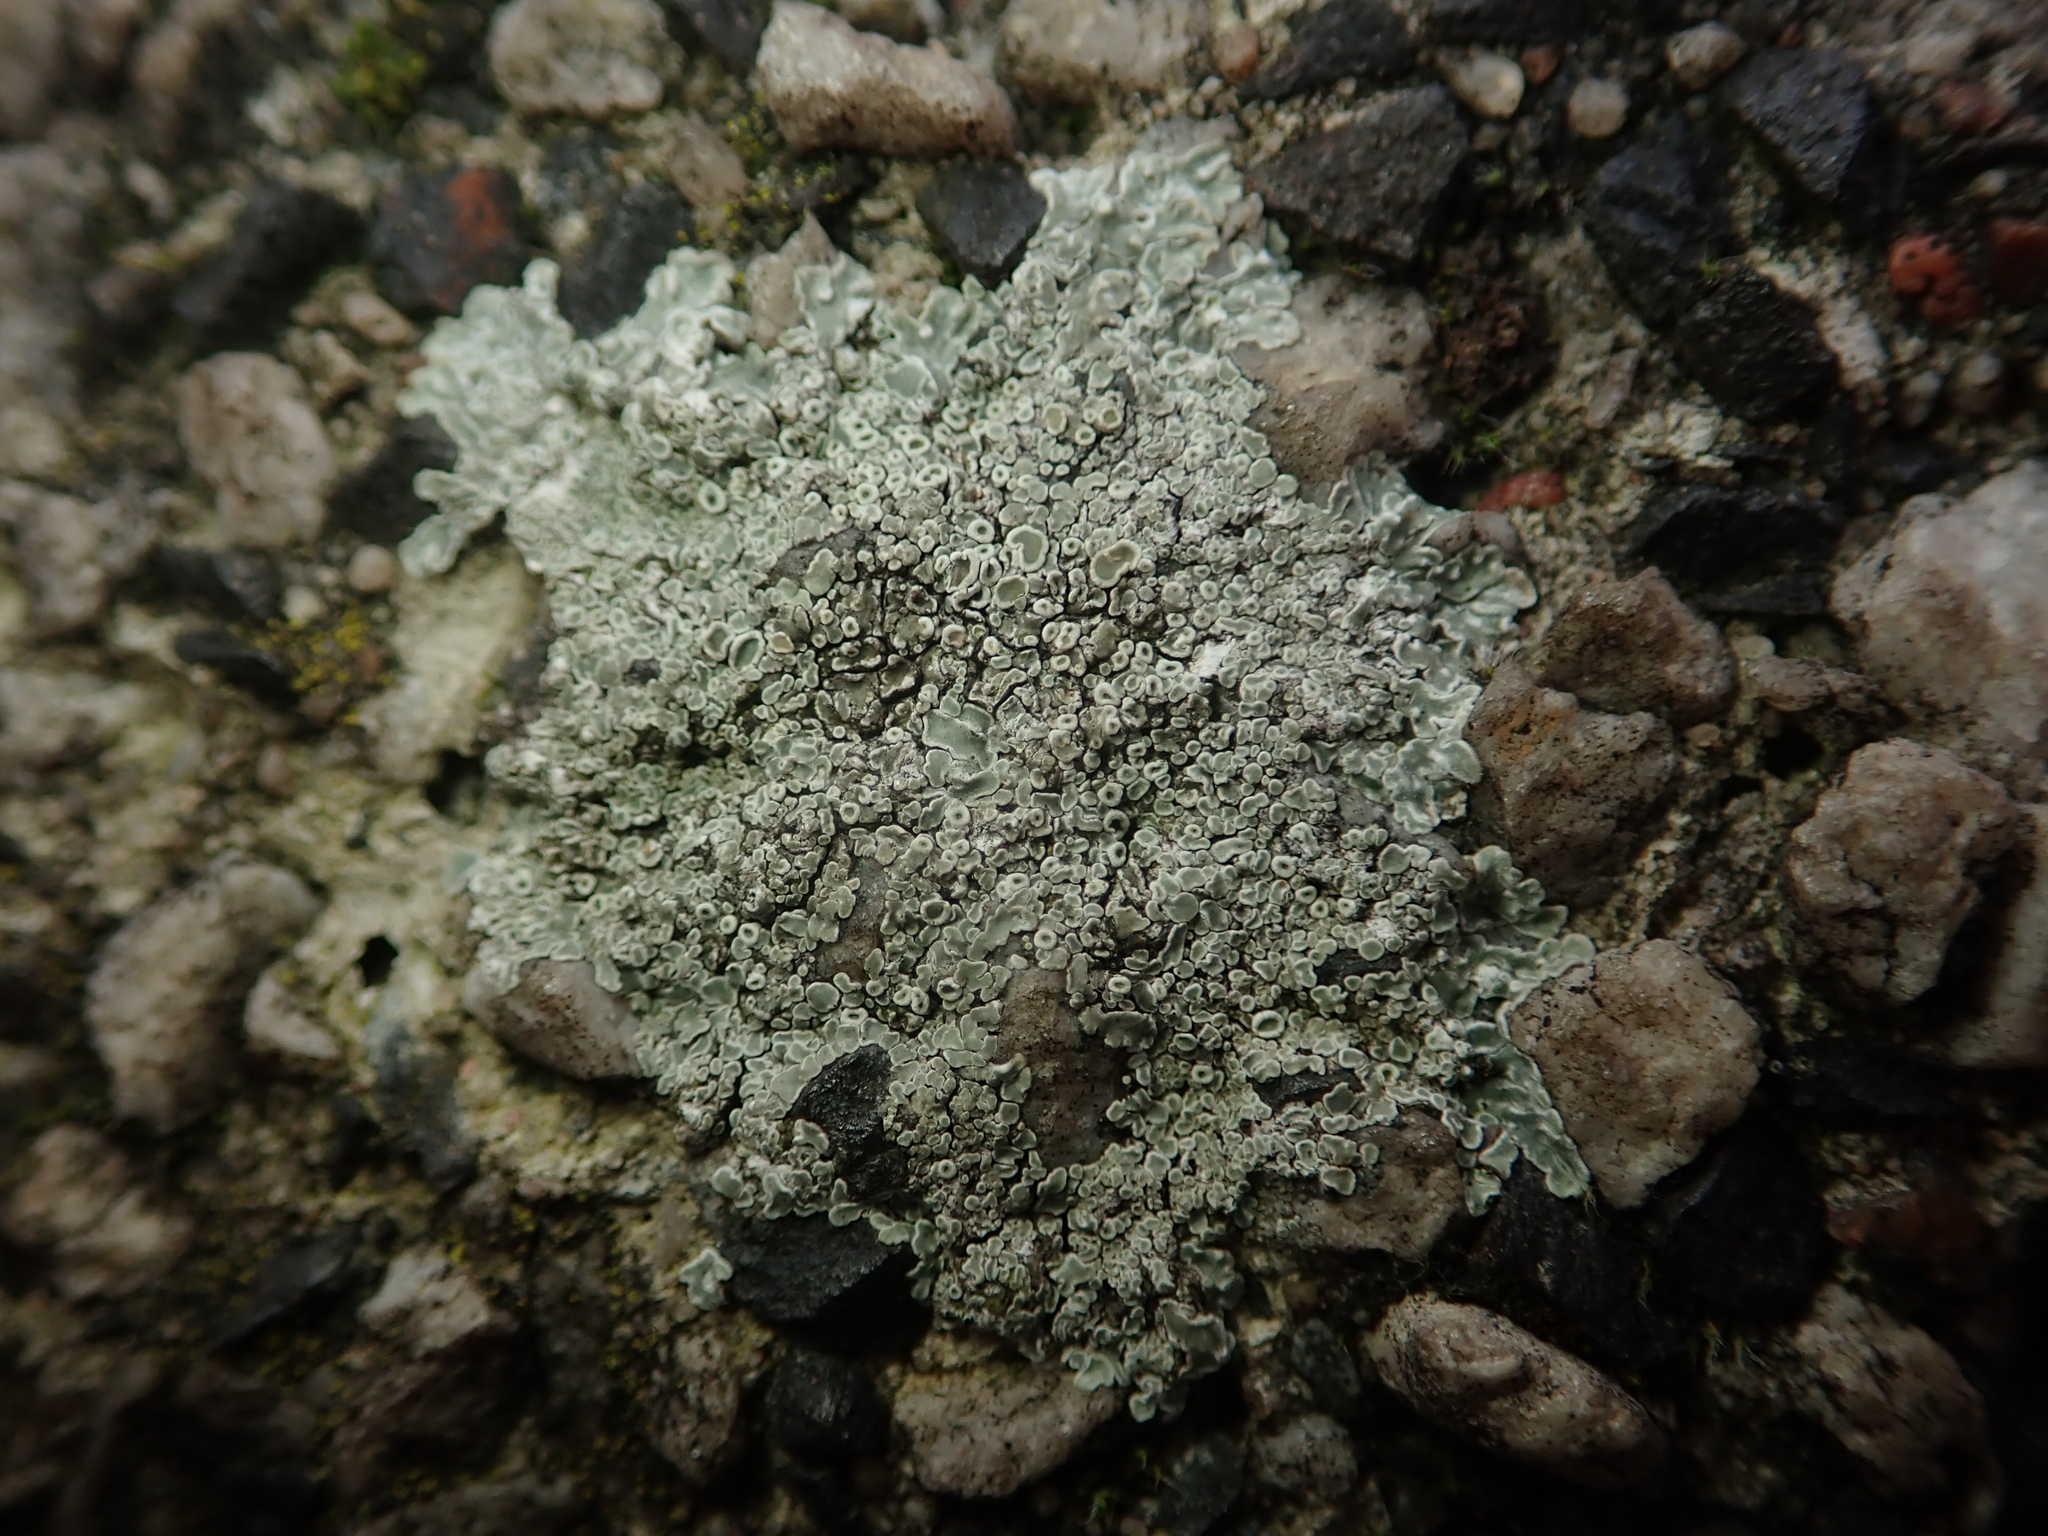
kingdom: Fungi
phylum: Ascomycota
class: Lecanoromycetes
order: Lecanorales
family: Lecanoraceae
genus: Protoparmeliopsis
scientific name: Protoparmeliopsis muralis
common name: Stonewall rim lichen
